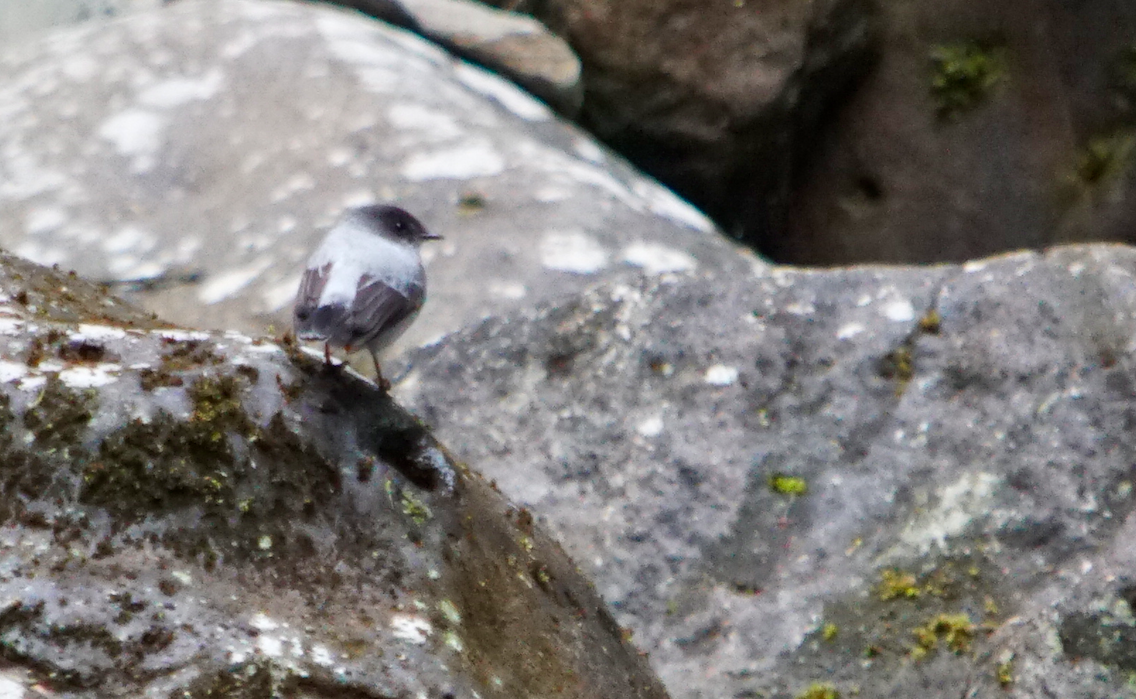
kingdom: Animalia
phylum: Chordata
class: Aves
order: Passeriformes
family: Tyrannidae
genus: Serpophaga
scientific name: Serpophaga cinerea
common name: Torrent tyrannulet
